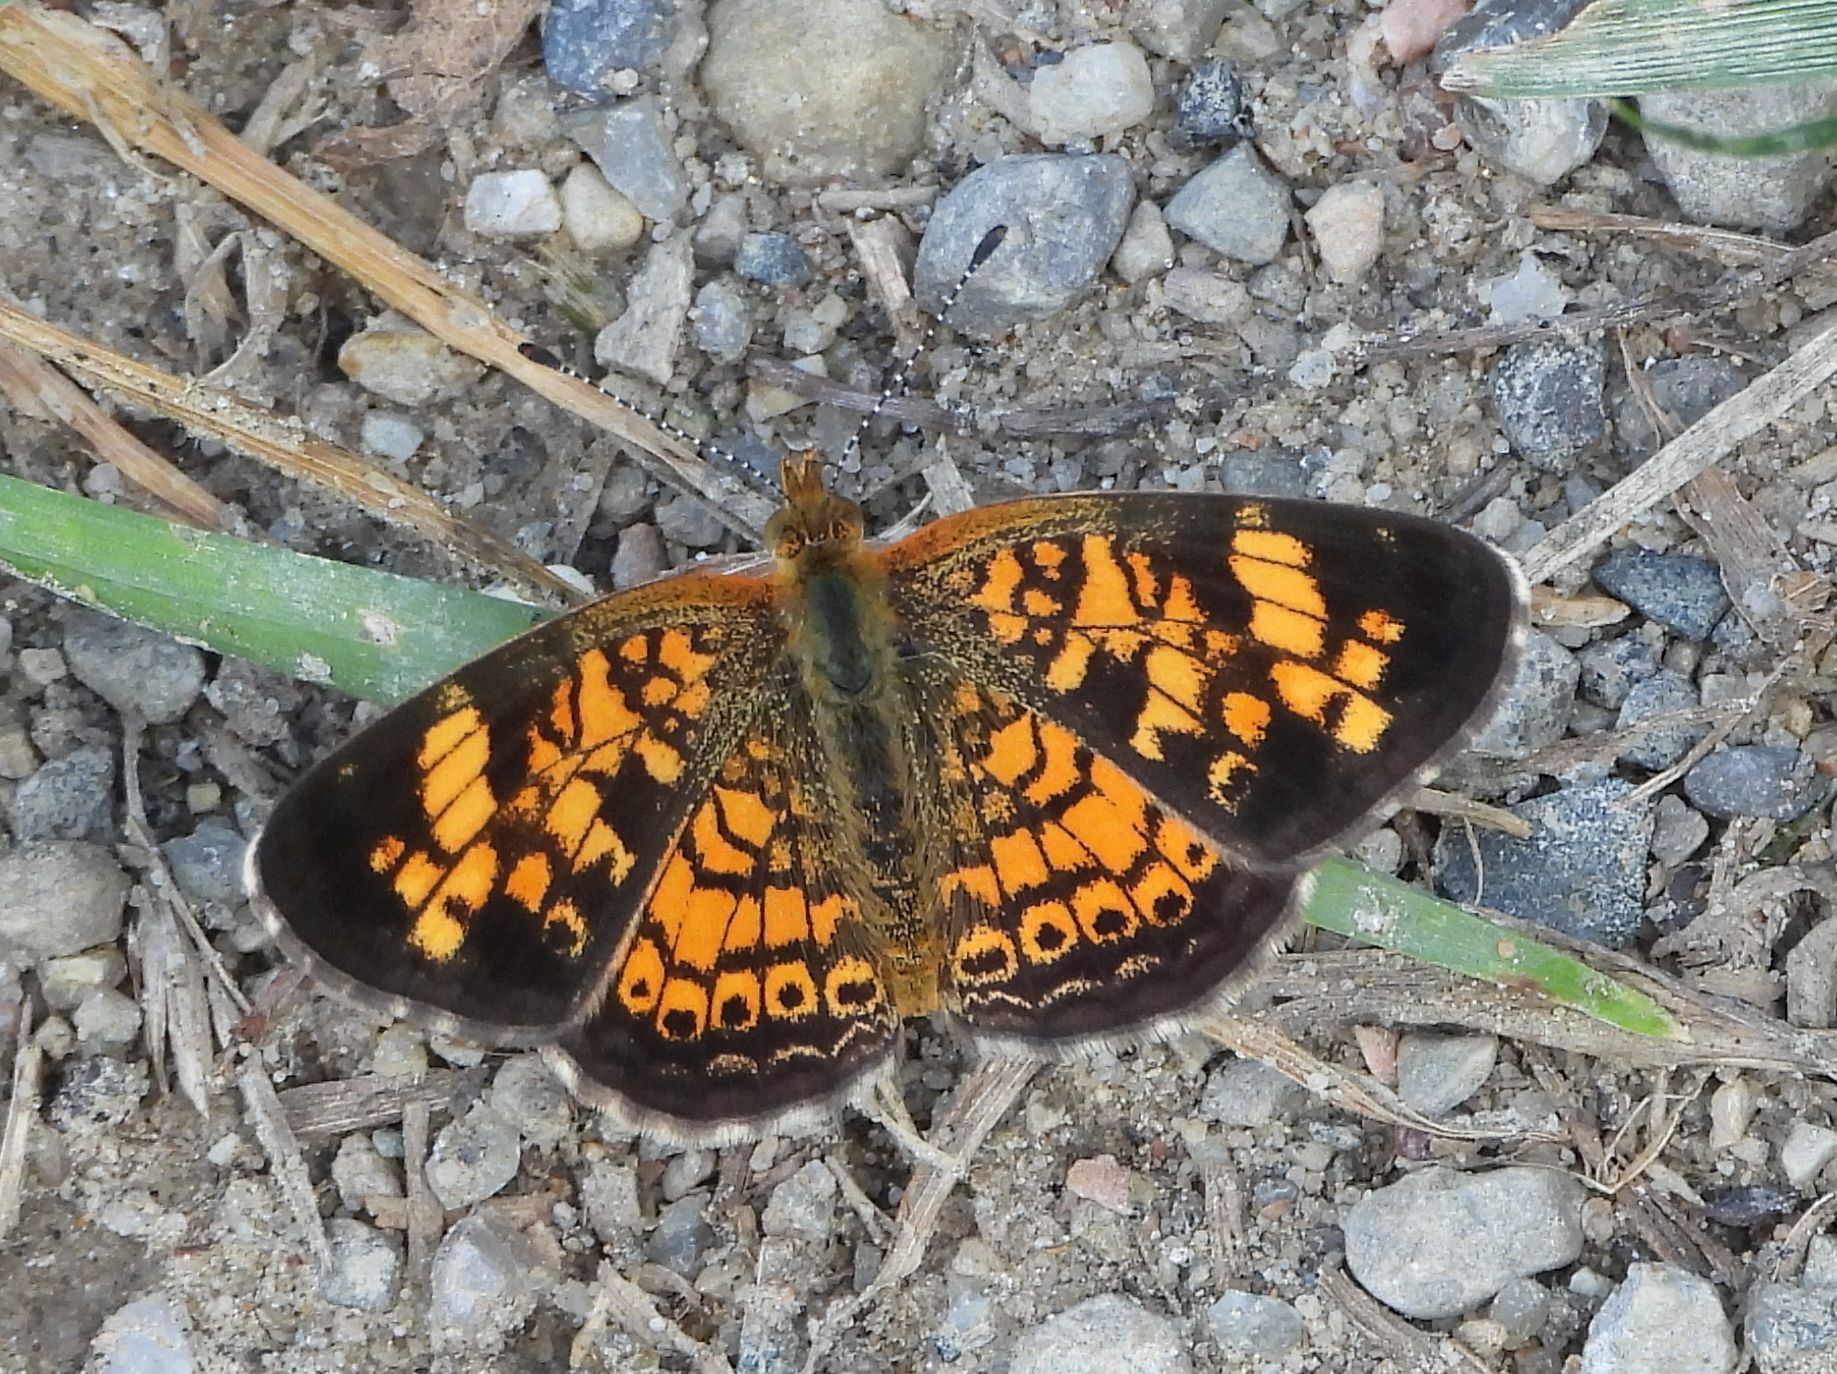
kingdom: Animalia
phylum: Arthropoda
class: Insecta
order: Lepidoptera
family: Nymphalidae
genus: Phyciodes
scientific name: Phyciodes tharos
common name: Pearl crescent
